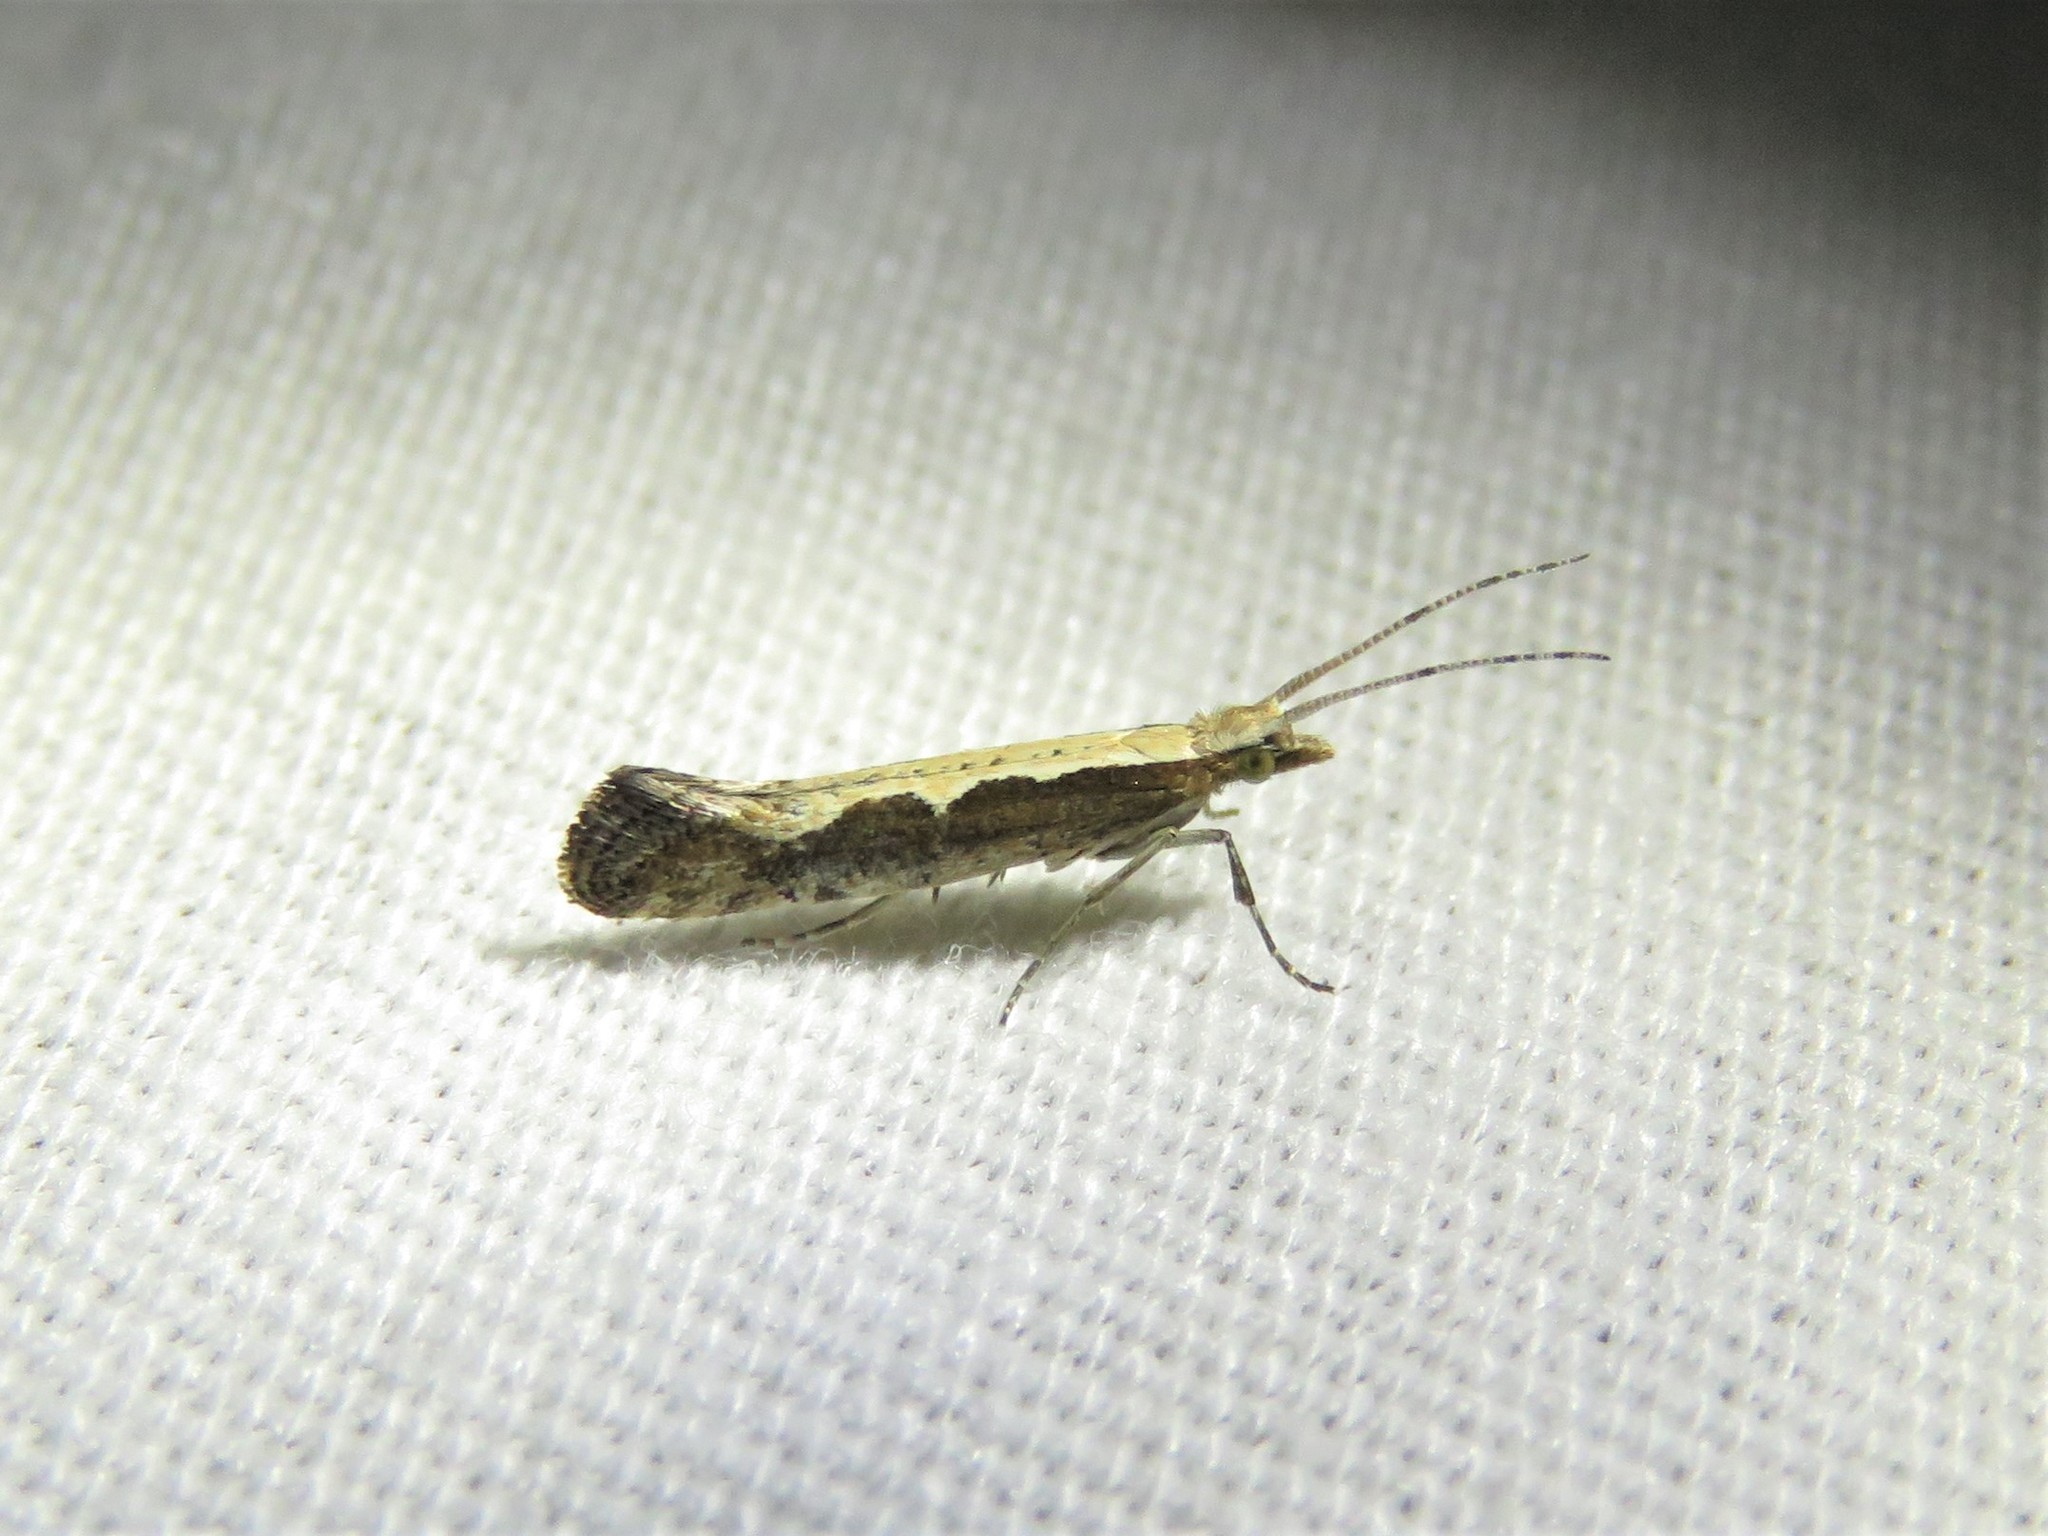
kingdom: Animalia
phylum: Arthropoda
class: Insecta
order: Lepidoptera
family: Plutellidae
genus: Plutella
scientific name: Plutella xylostella
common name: Diamond-back moth
